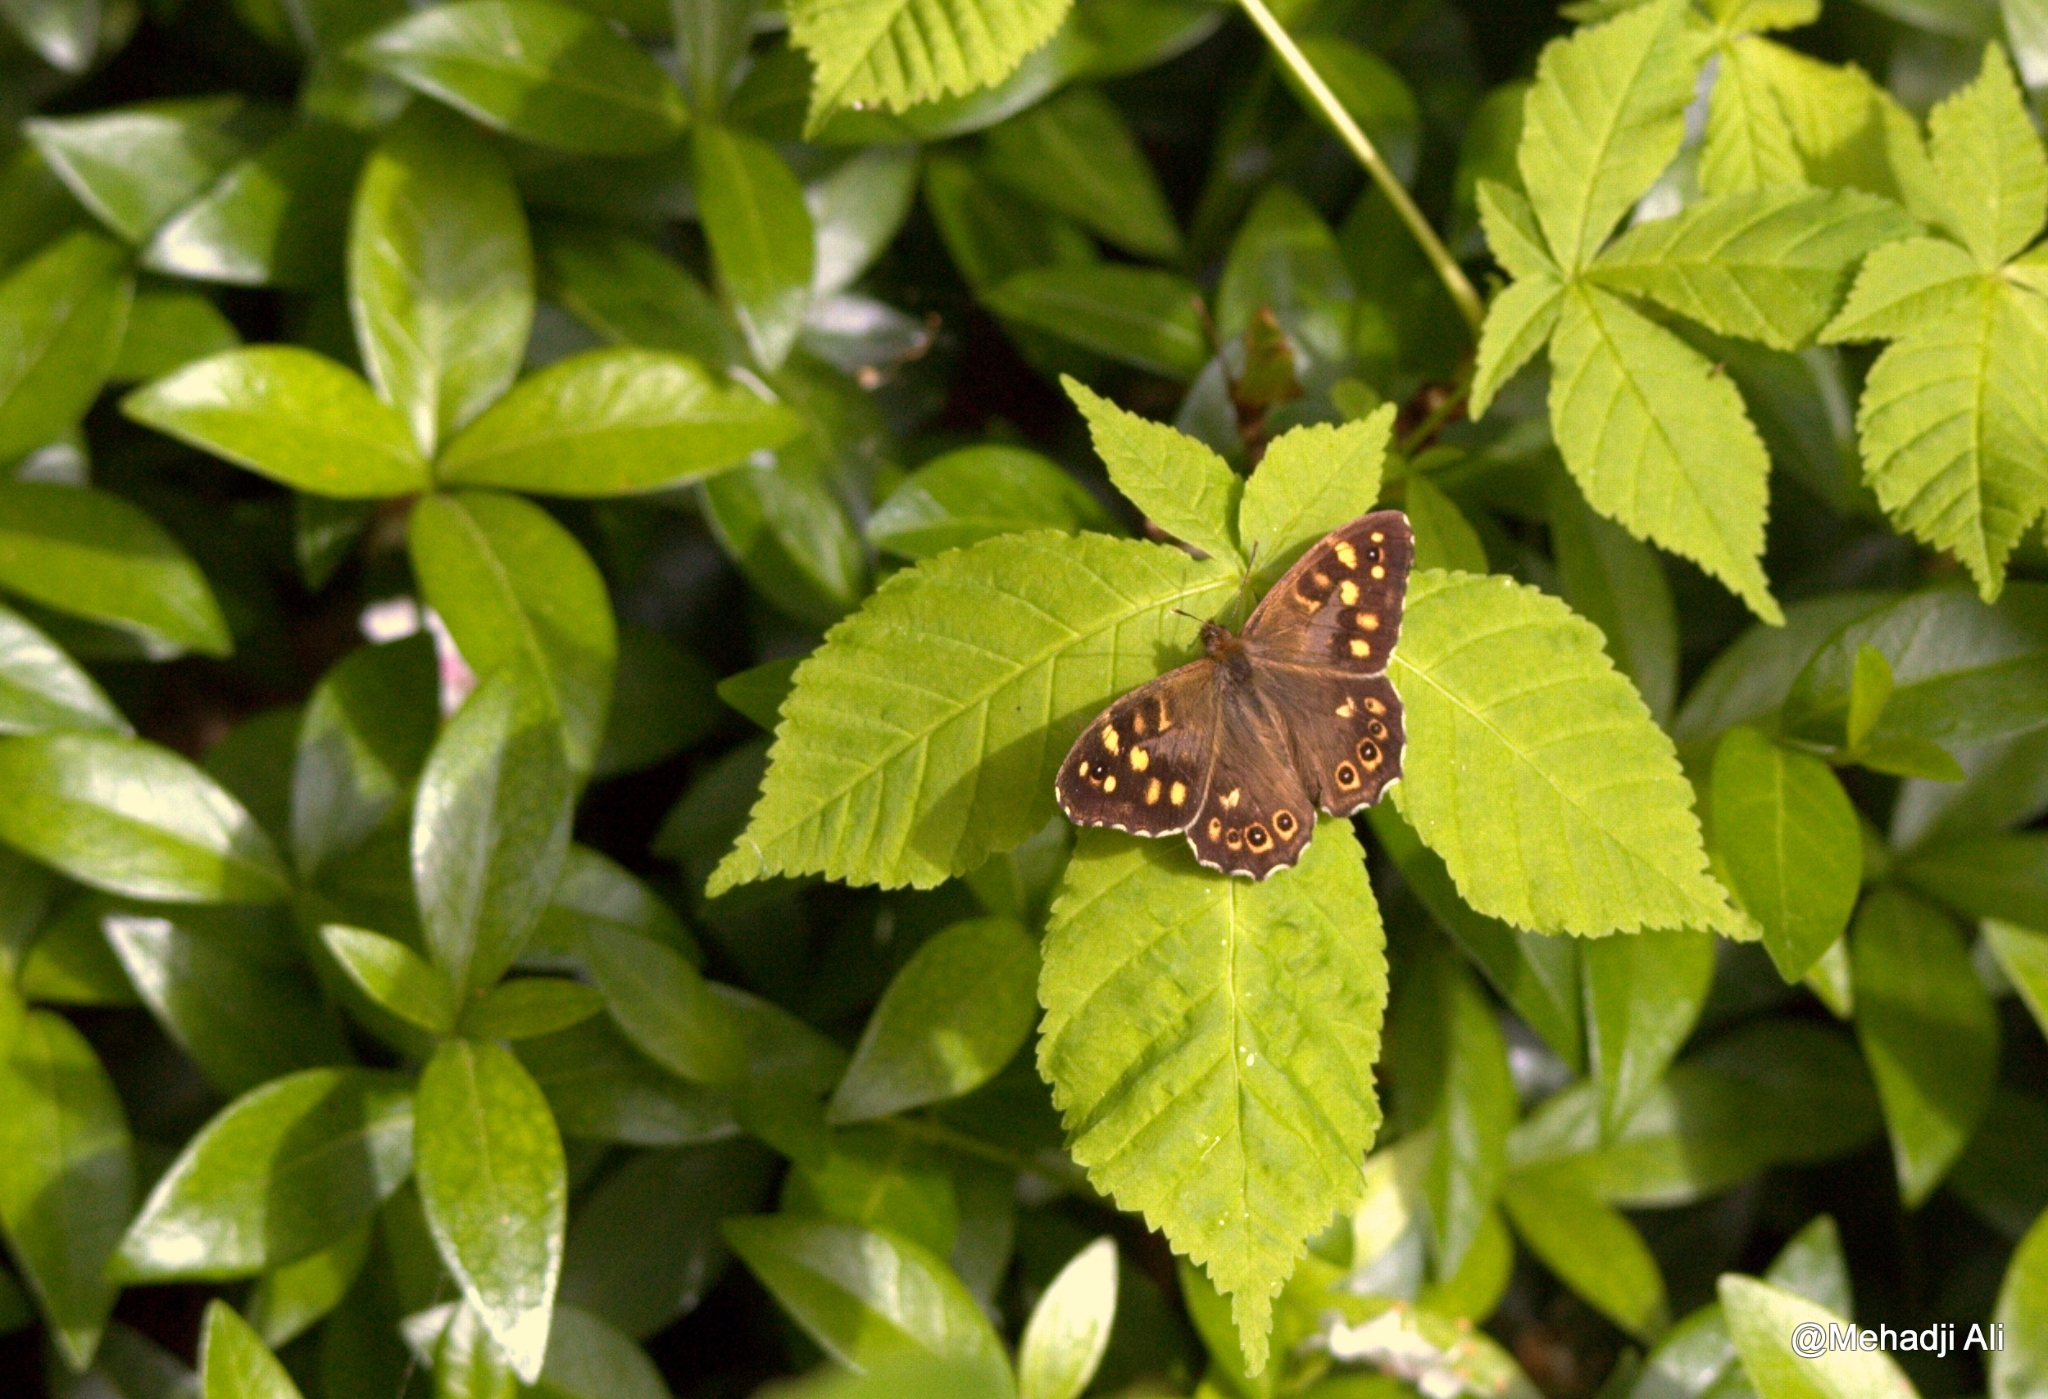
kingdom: Animalia
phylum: Arthropoda
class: Insecta
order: Lepidoptera
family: Nymphalidae
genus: Pararge
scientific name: Pararge aegeria
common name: Speckled wood
